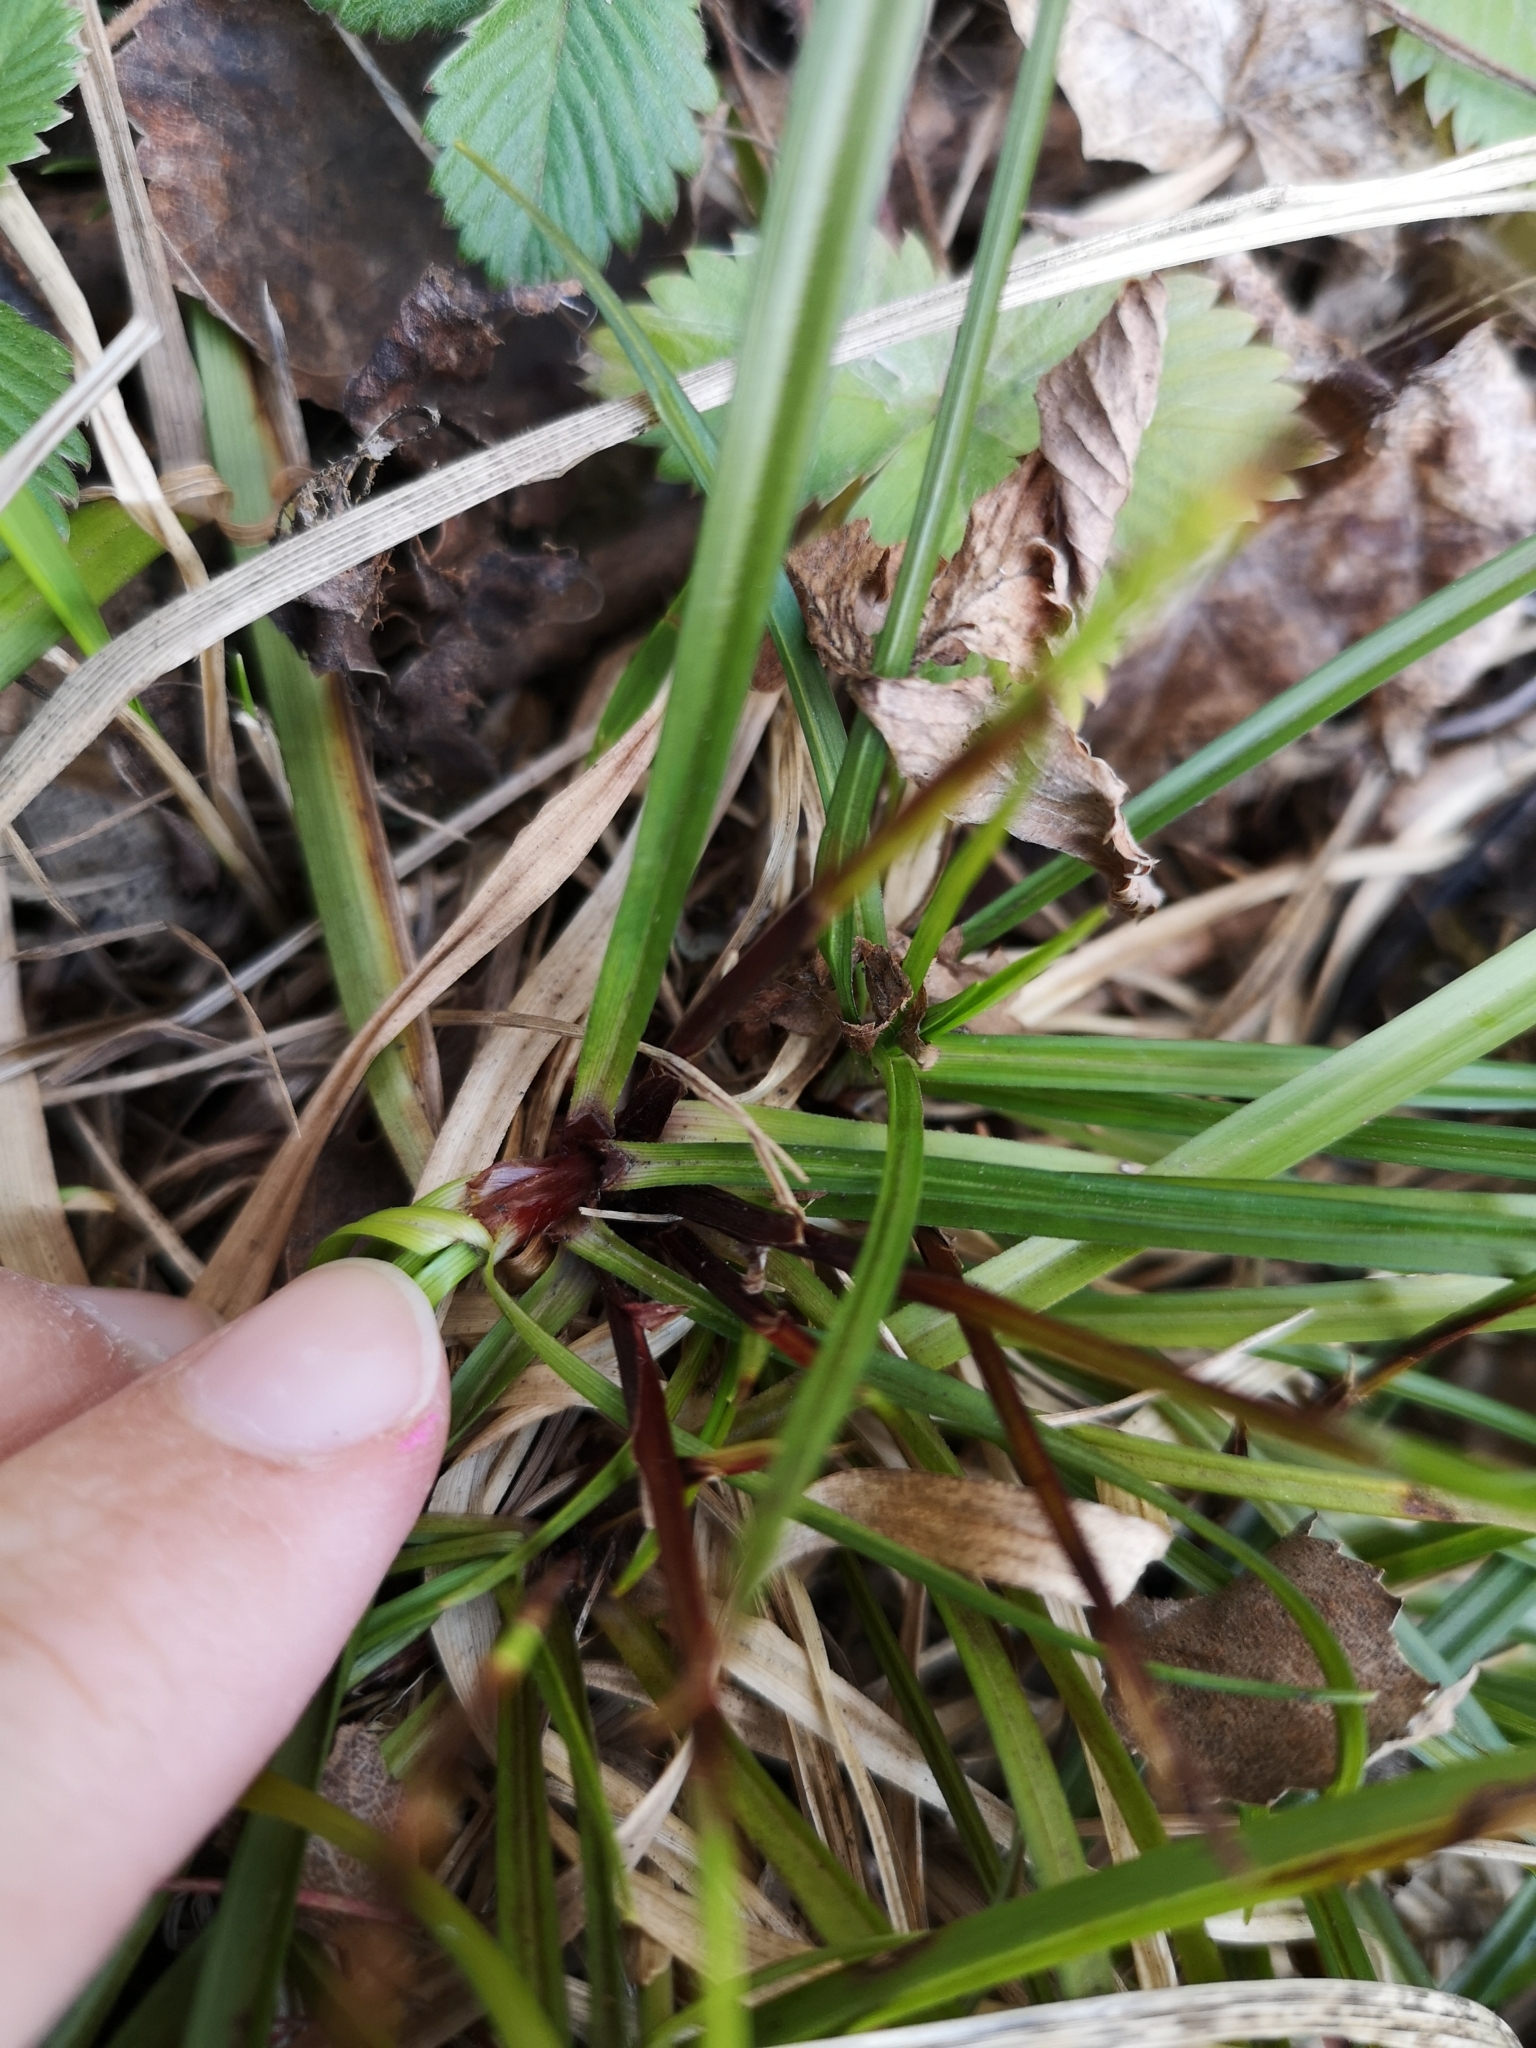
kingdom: Plantae
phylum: Tracheophyta
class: Liliopsida
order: Poales
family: Cyperaceae
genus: Carex
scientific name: Carex digitata
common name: Fingered sedge
